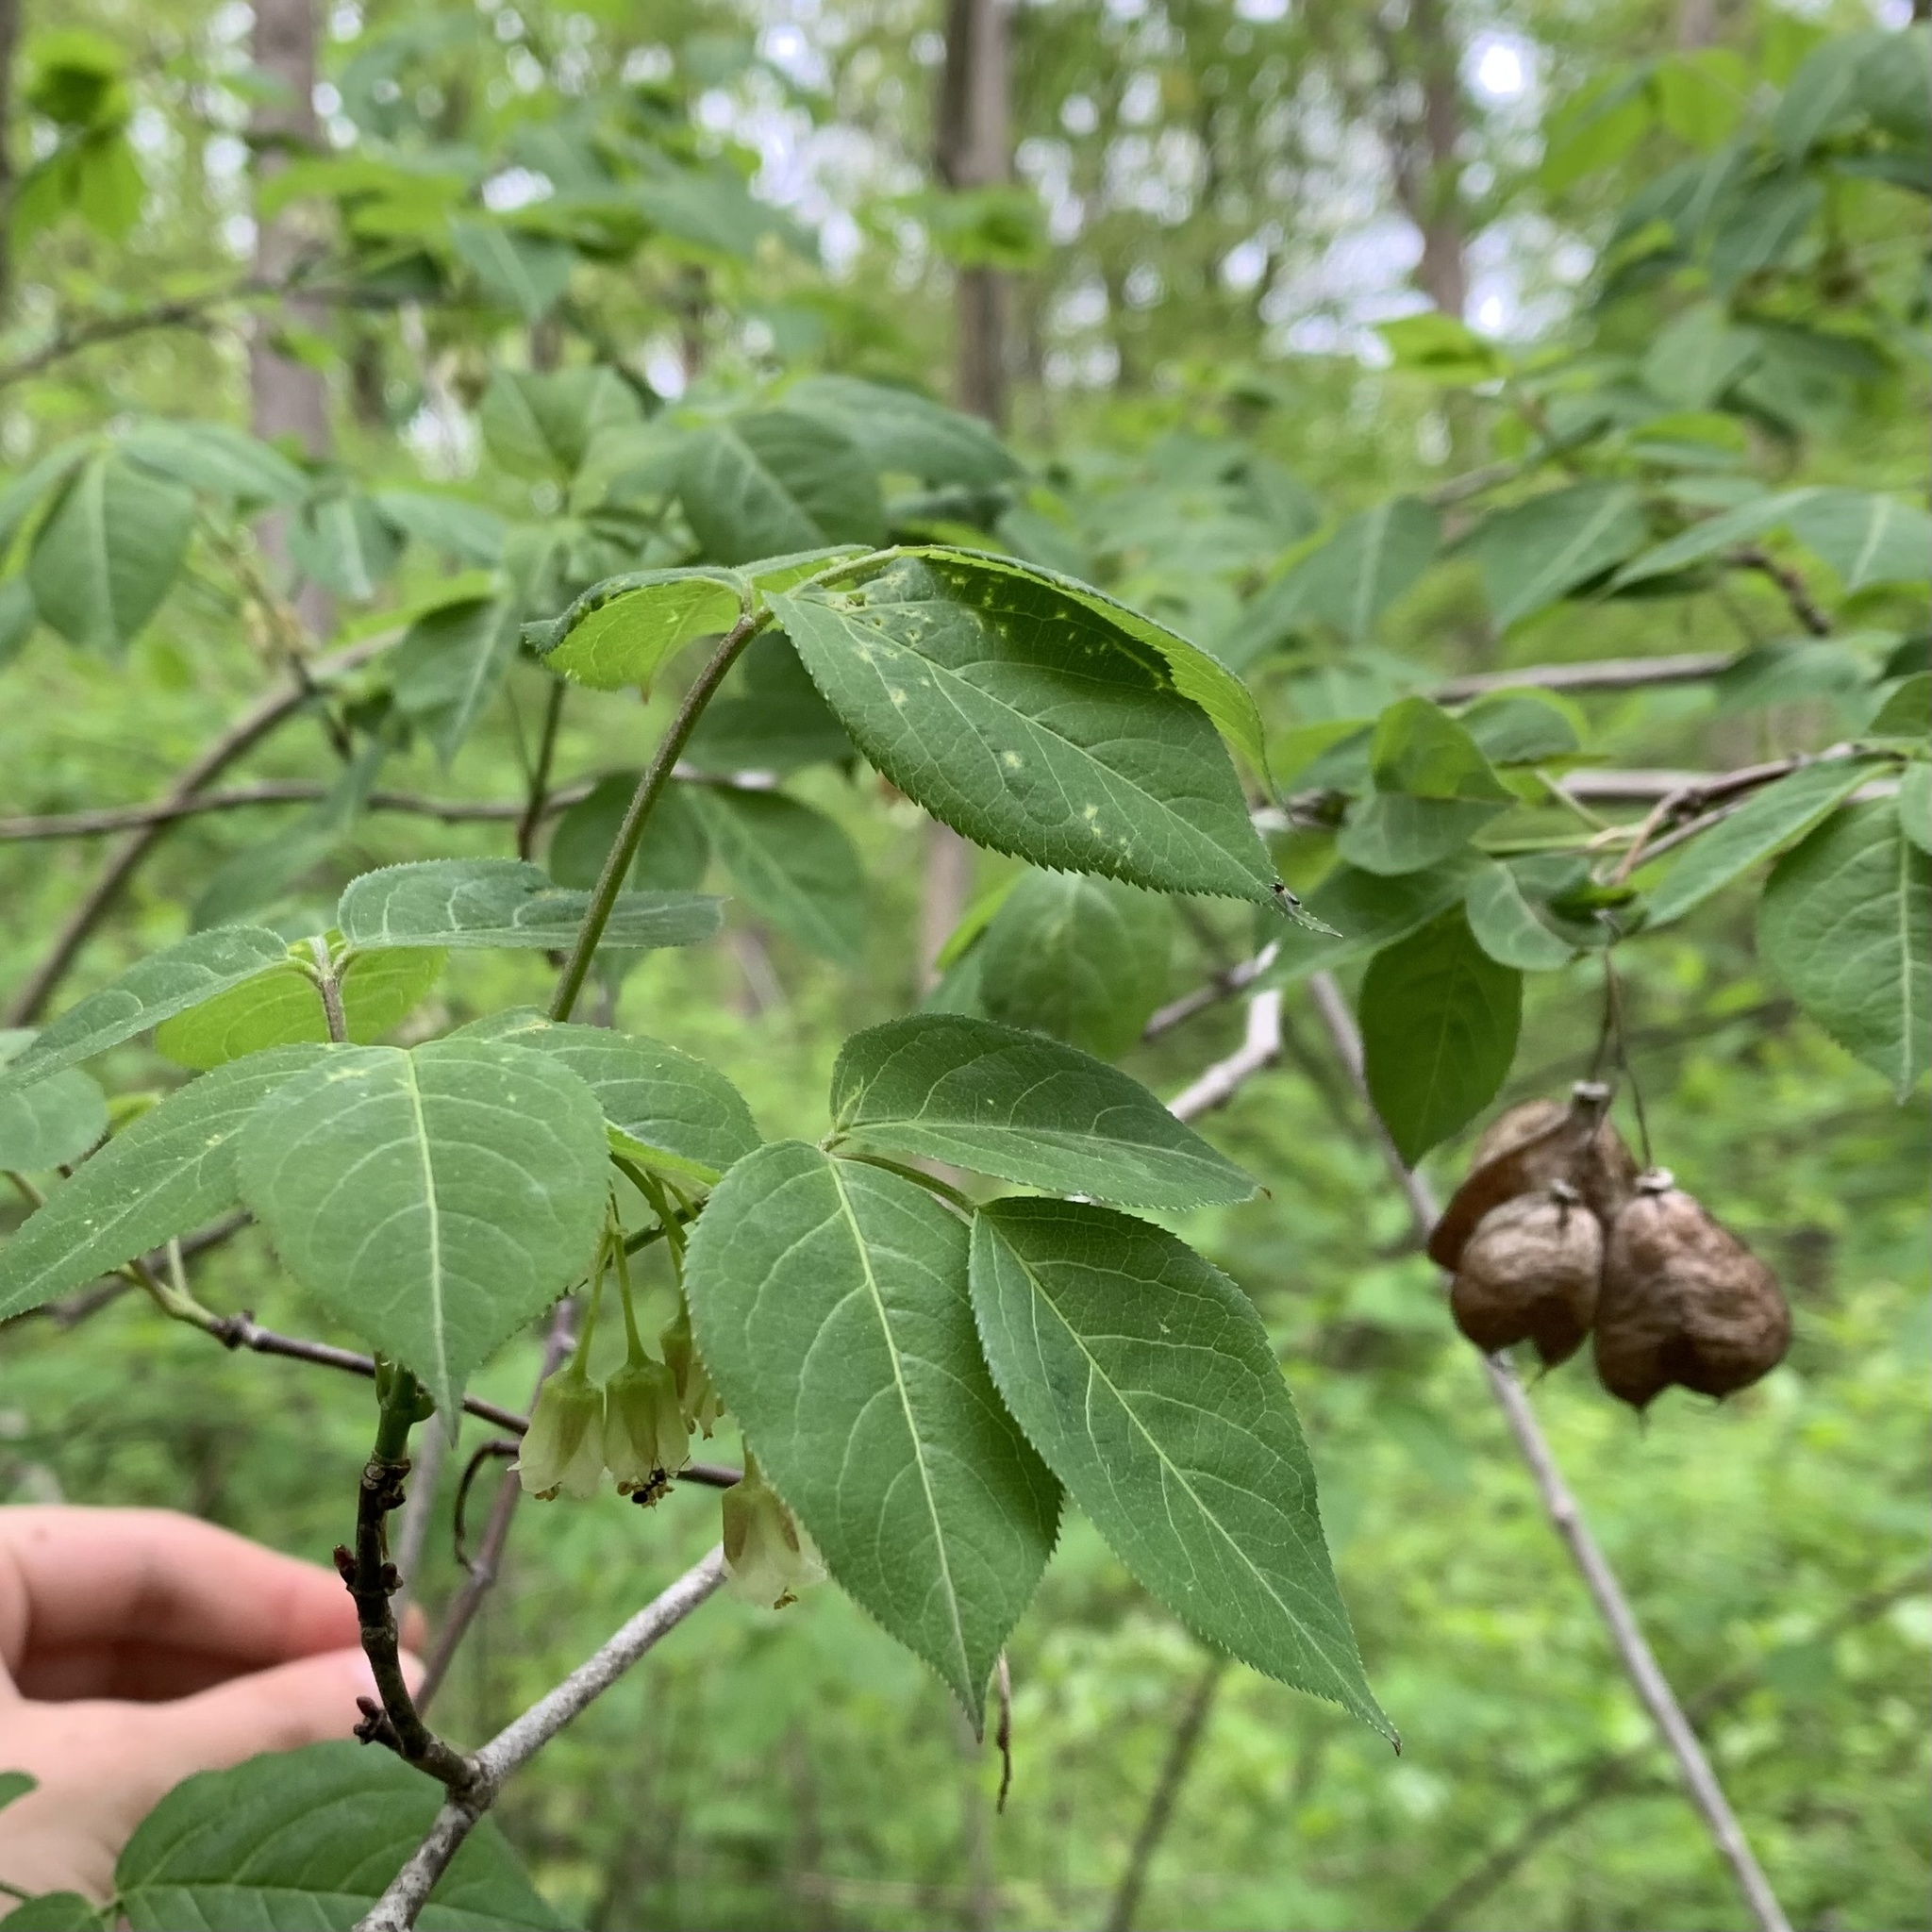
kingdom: Plantae
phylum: Tracheophyta
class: Magnoliopsida
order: Crossosomatales
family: Staphyleaceae
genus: Staphylea
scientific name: Staphylea trifolia
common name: American bladdernut
